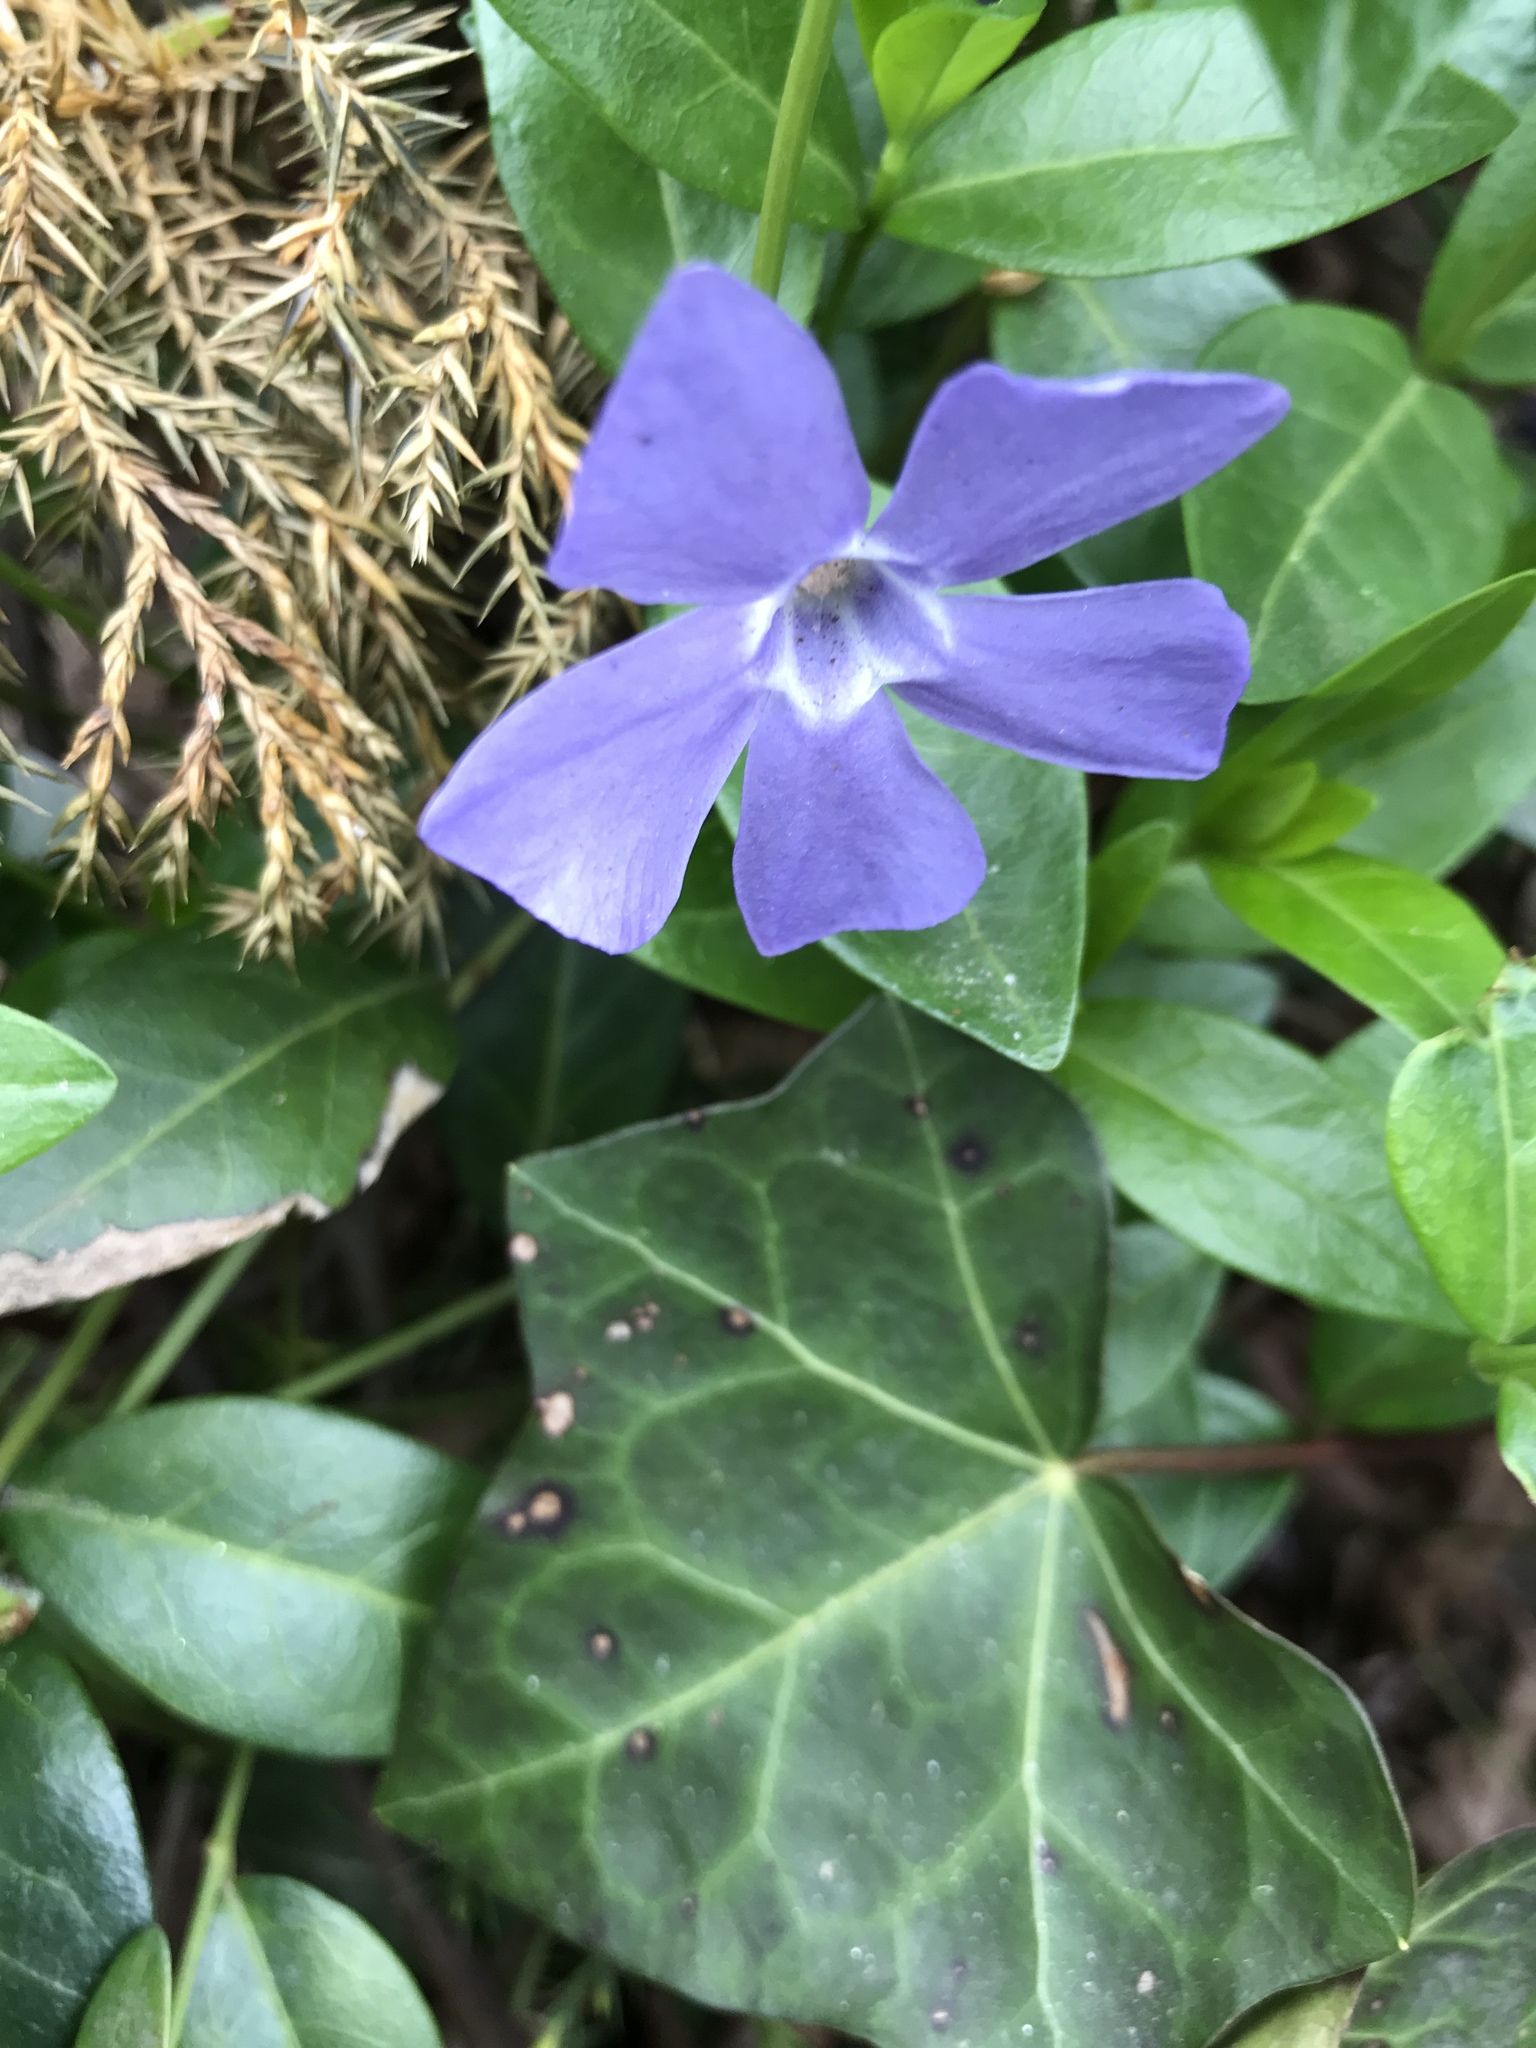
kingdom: Plantae
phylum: Tracheophyta
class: Magnoliopsida
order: Gentianales
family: Apocynaceae
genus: Vinca
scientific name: Vinca minor
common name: Lesser periwinkle
